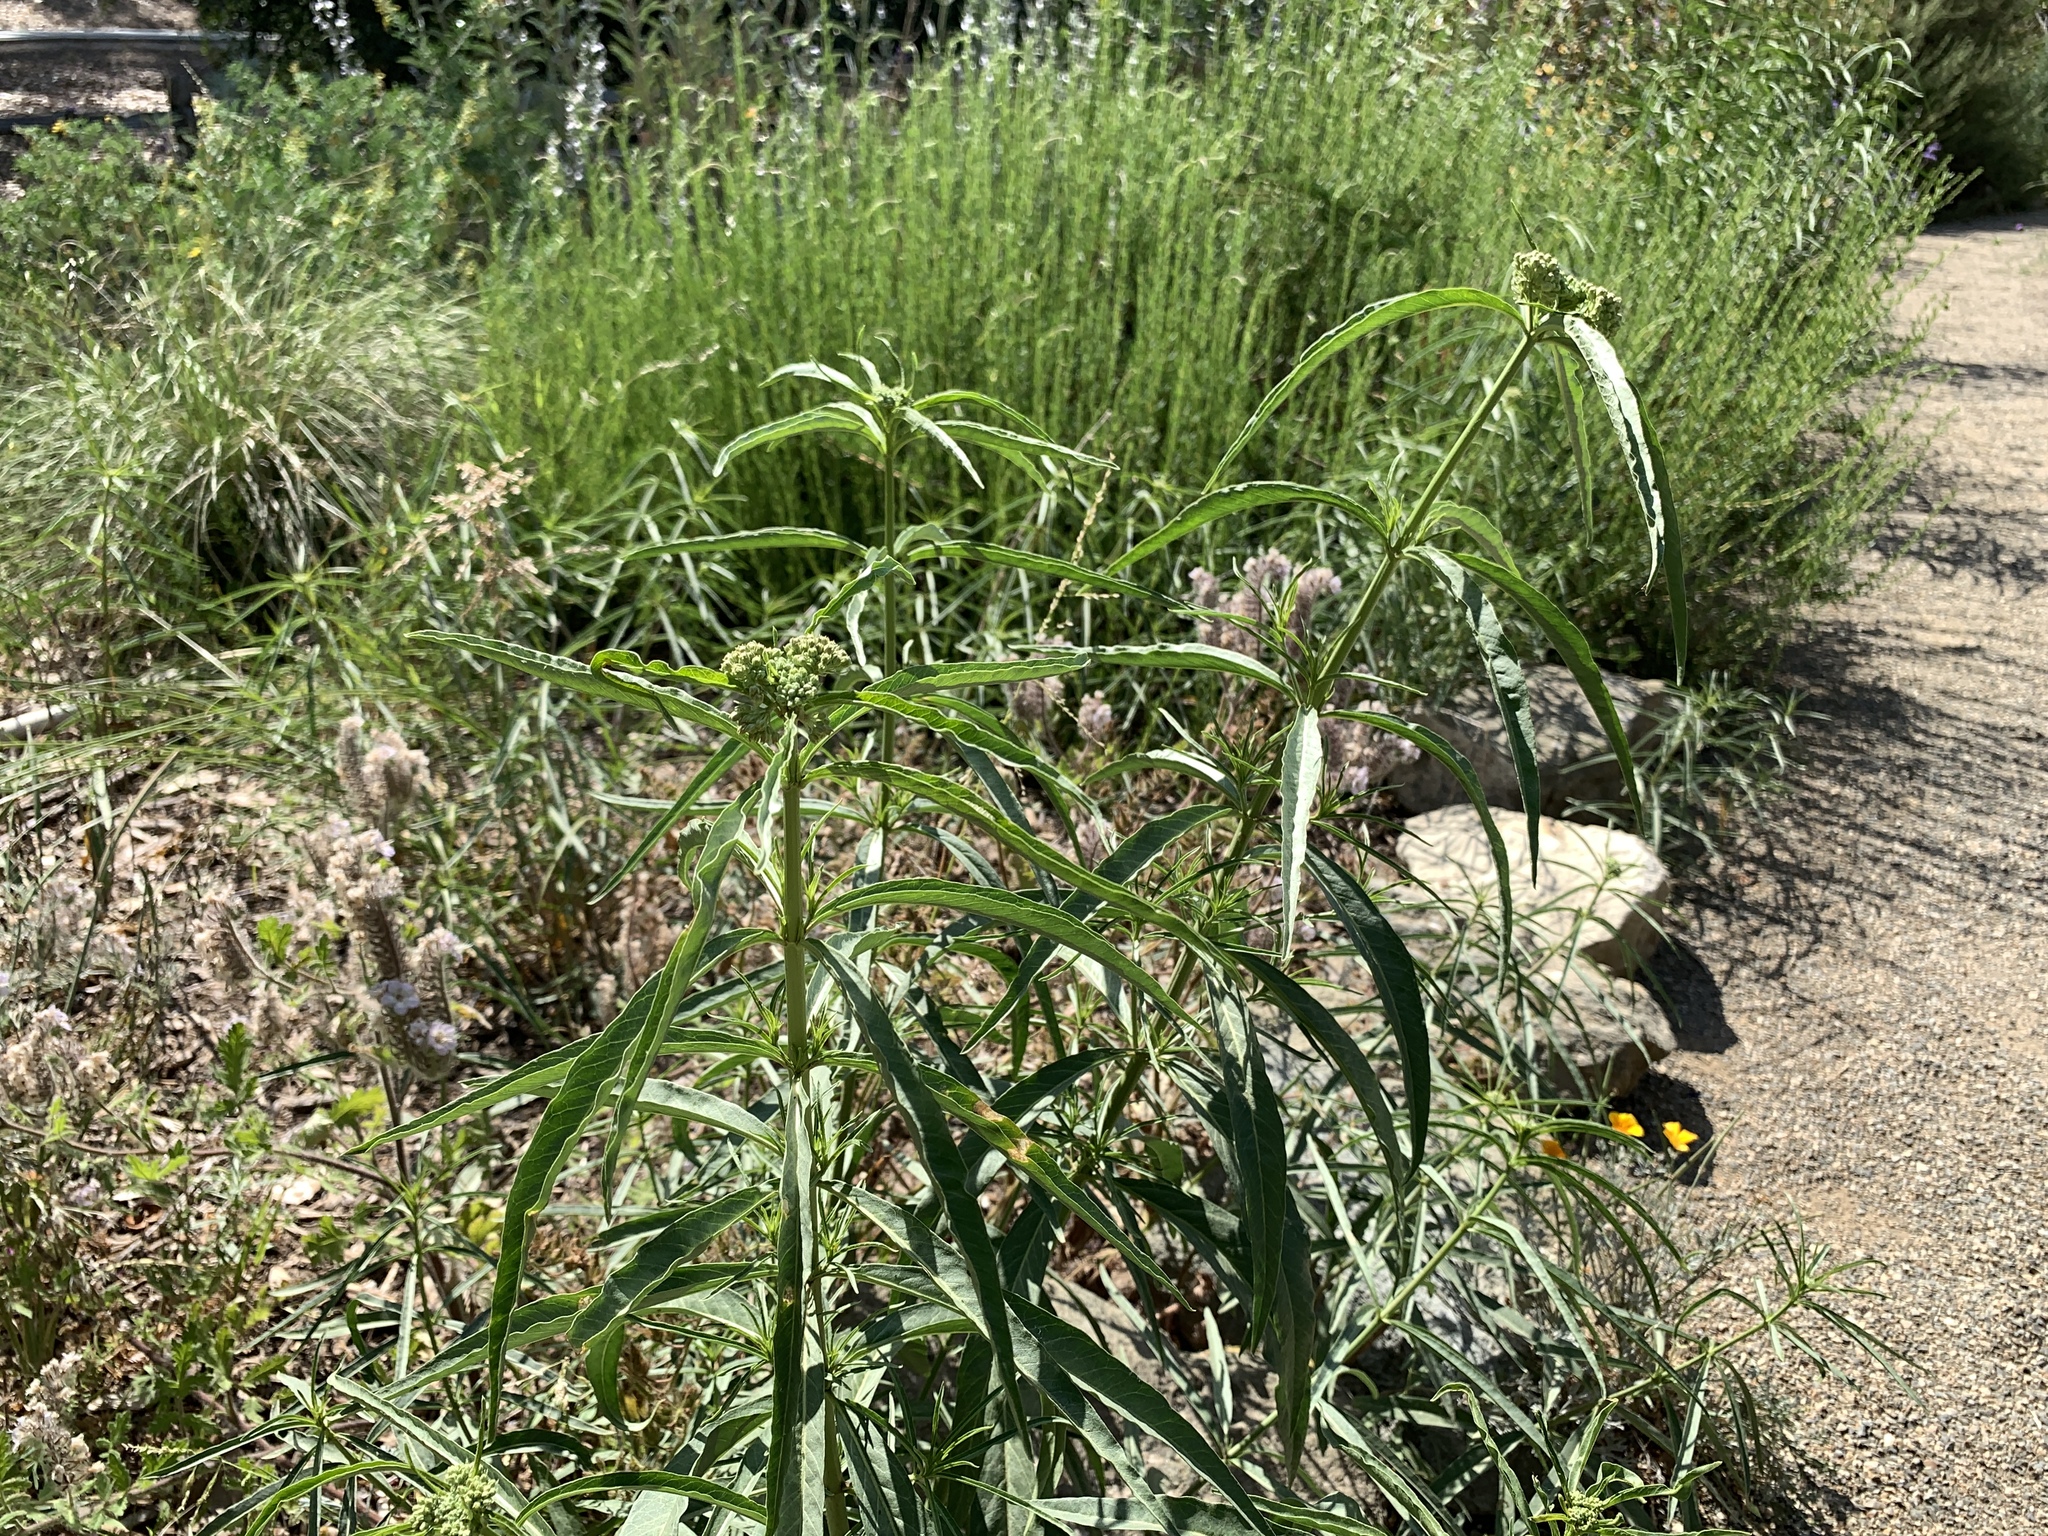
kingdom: Plantae
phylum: Tracheophyta
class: Magnoliopsida
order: Gentianales
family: Apocynaceae
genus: Asclepias
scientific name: Asclepias fascicularis
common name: Mexican milkweed
